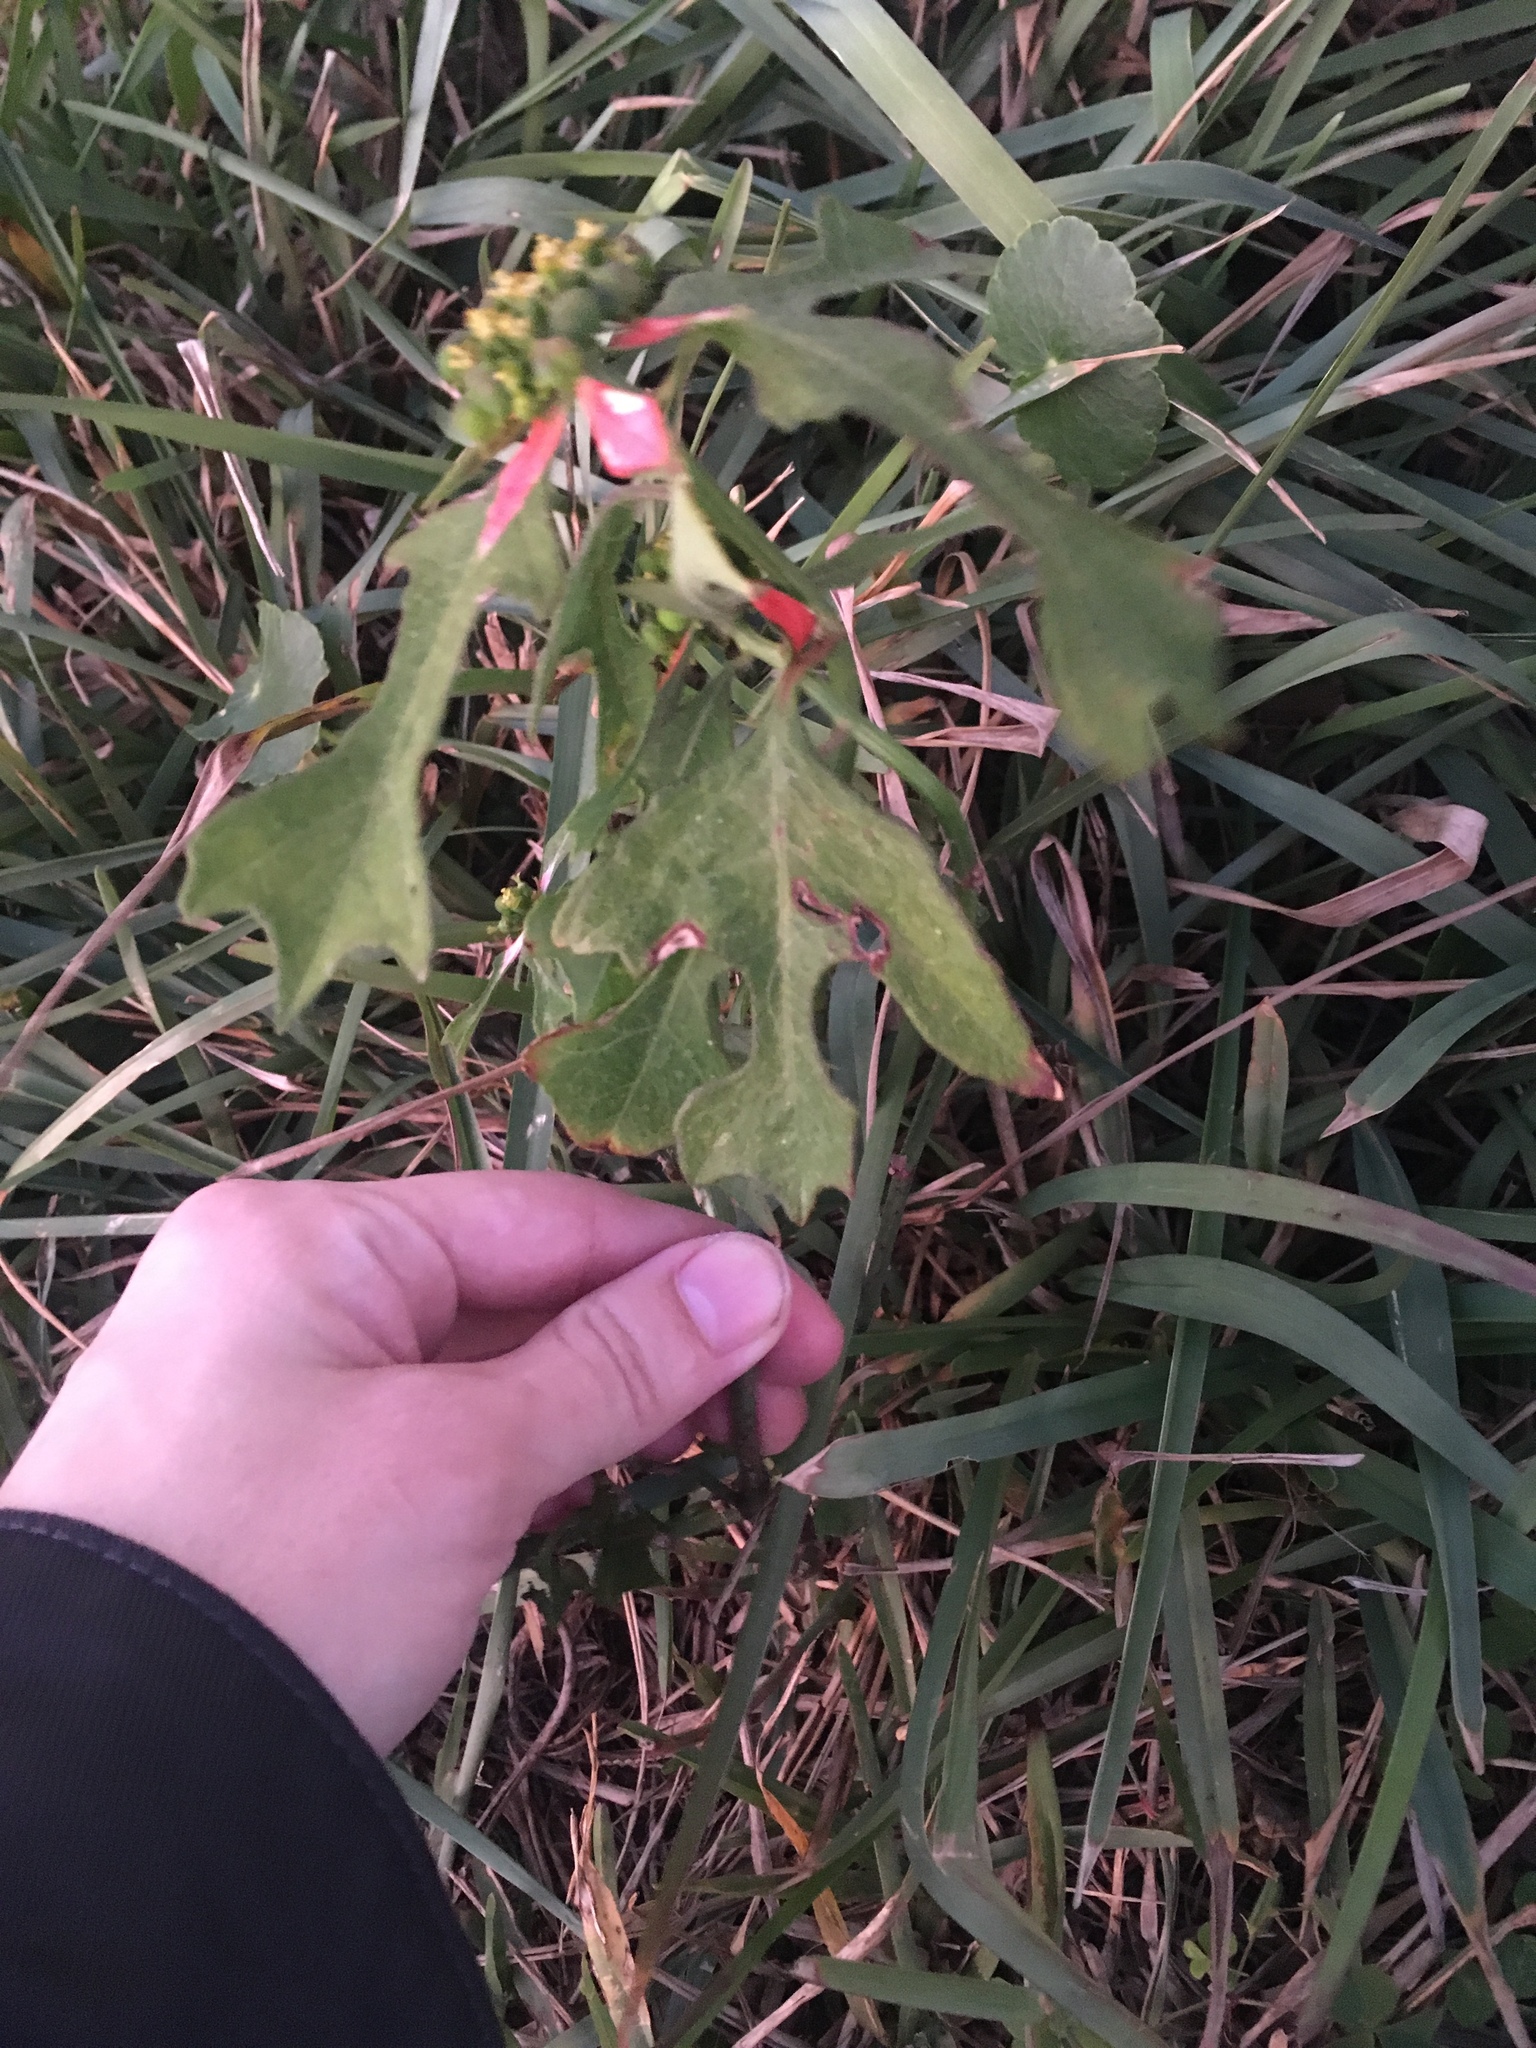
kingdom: Plantae
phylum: Tracheophyta
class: Magnoliopsida
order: Malpighiales
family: Euphorbiaceae
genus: Euphorbia
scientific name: Euphorbia heterophylla
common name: Mexican fireplant
